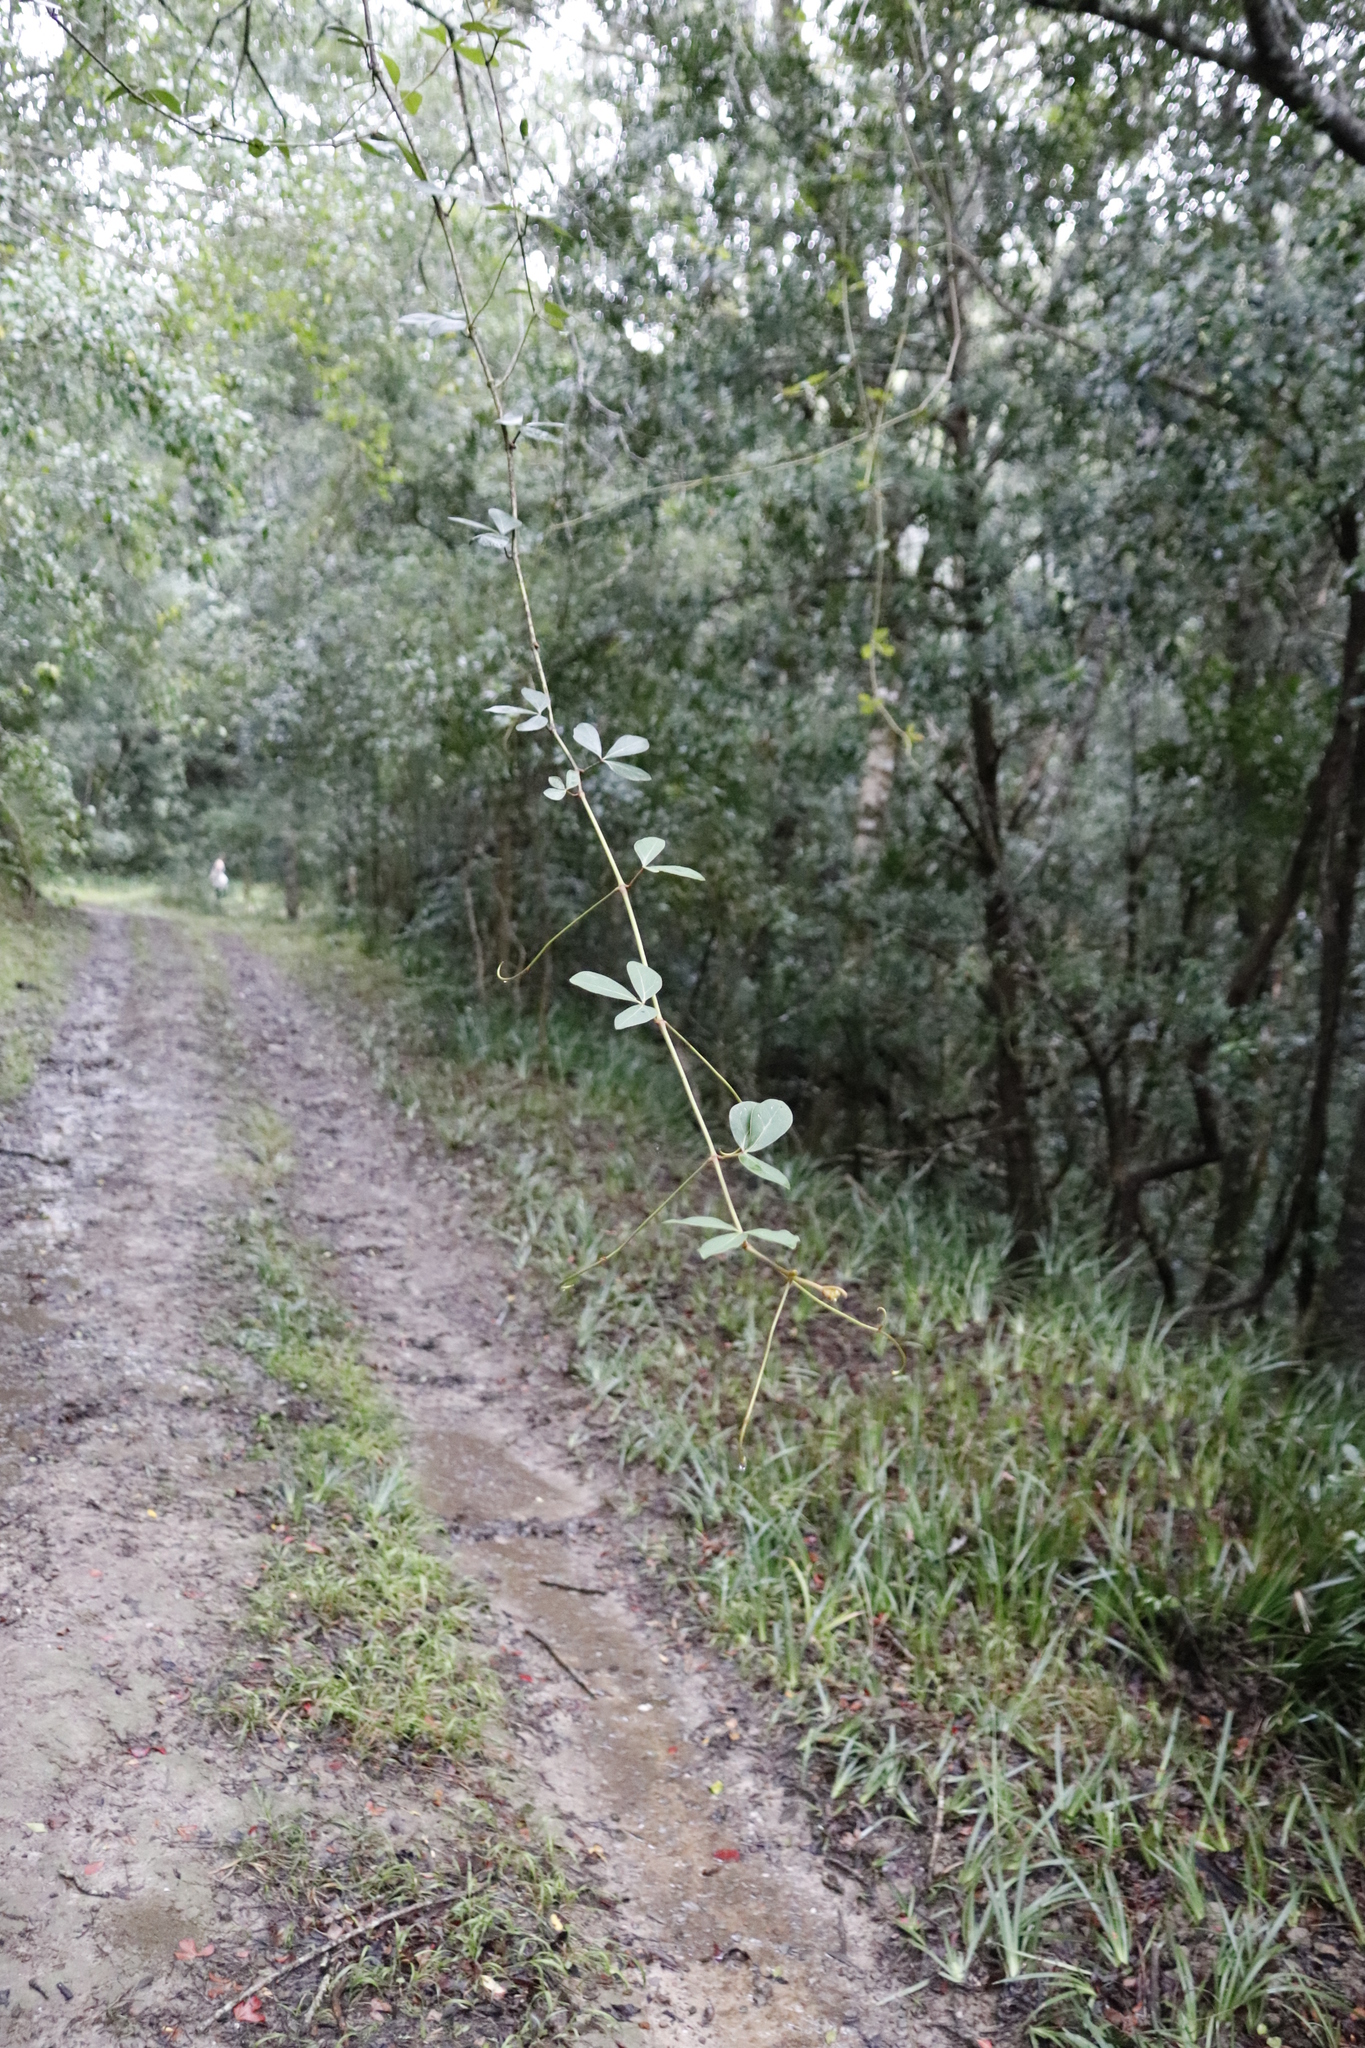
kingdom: Plantae
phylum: Tracheophyta
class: Magnoliopsida
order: Vitales
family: Vitaceae
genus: Rhoicissus
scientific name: Rhoicissus digitata
